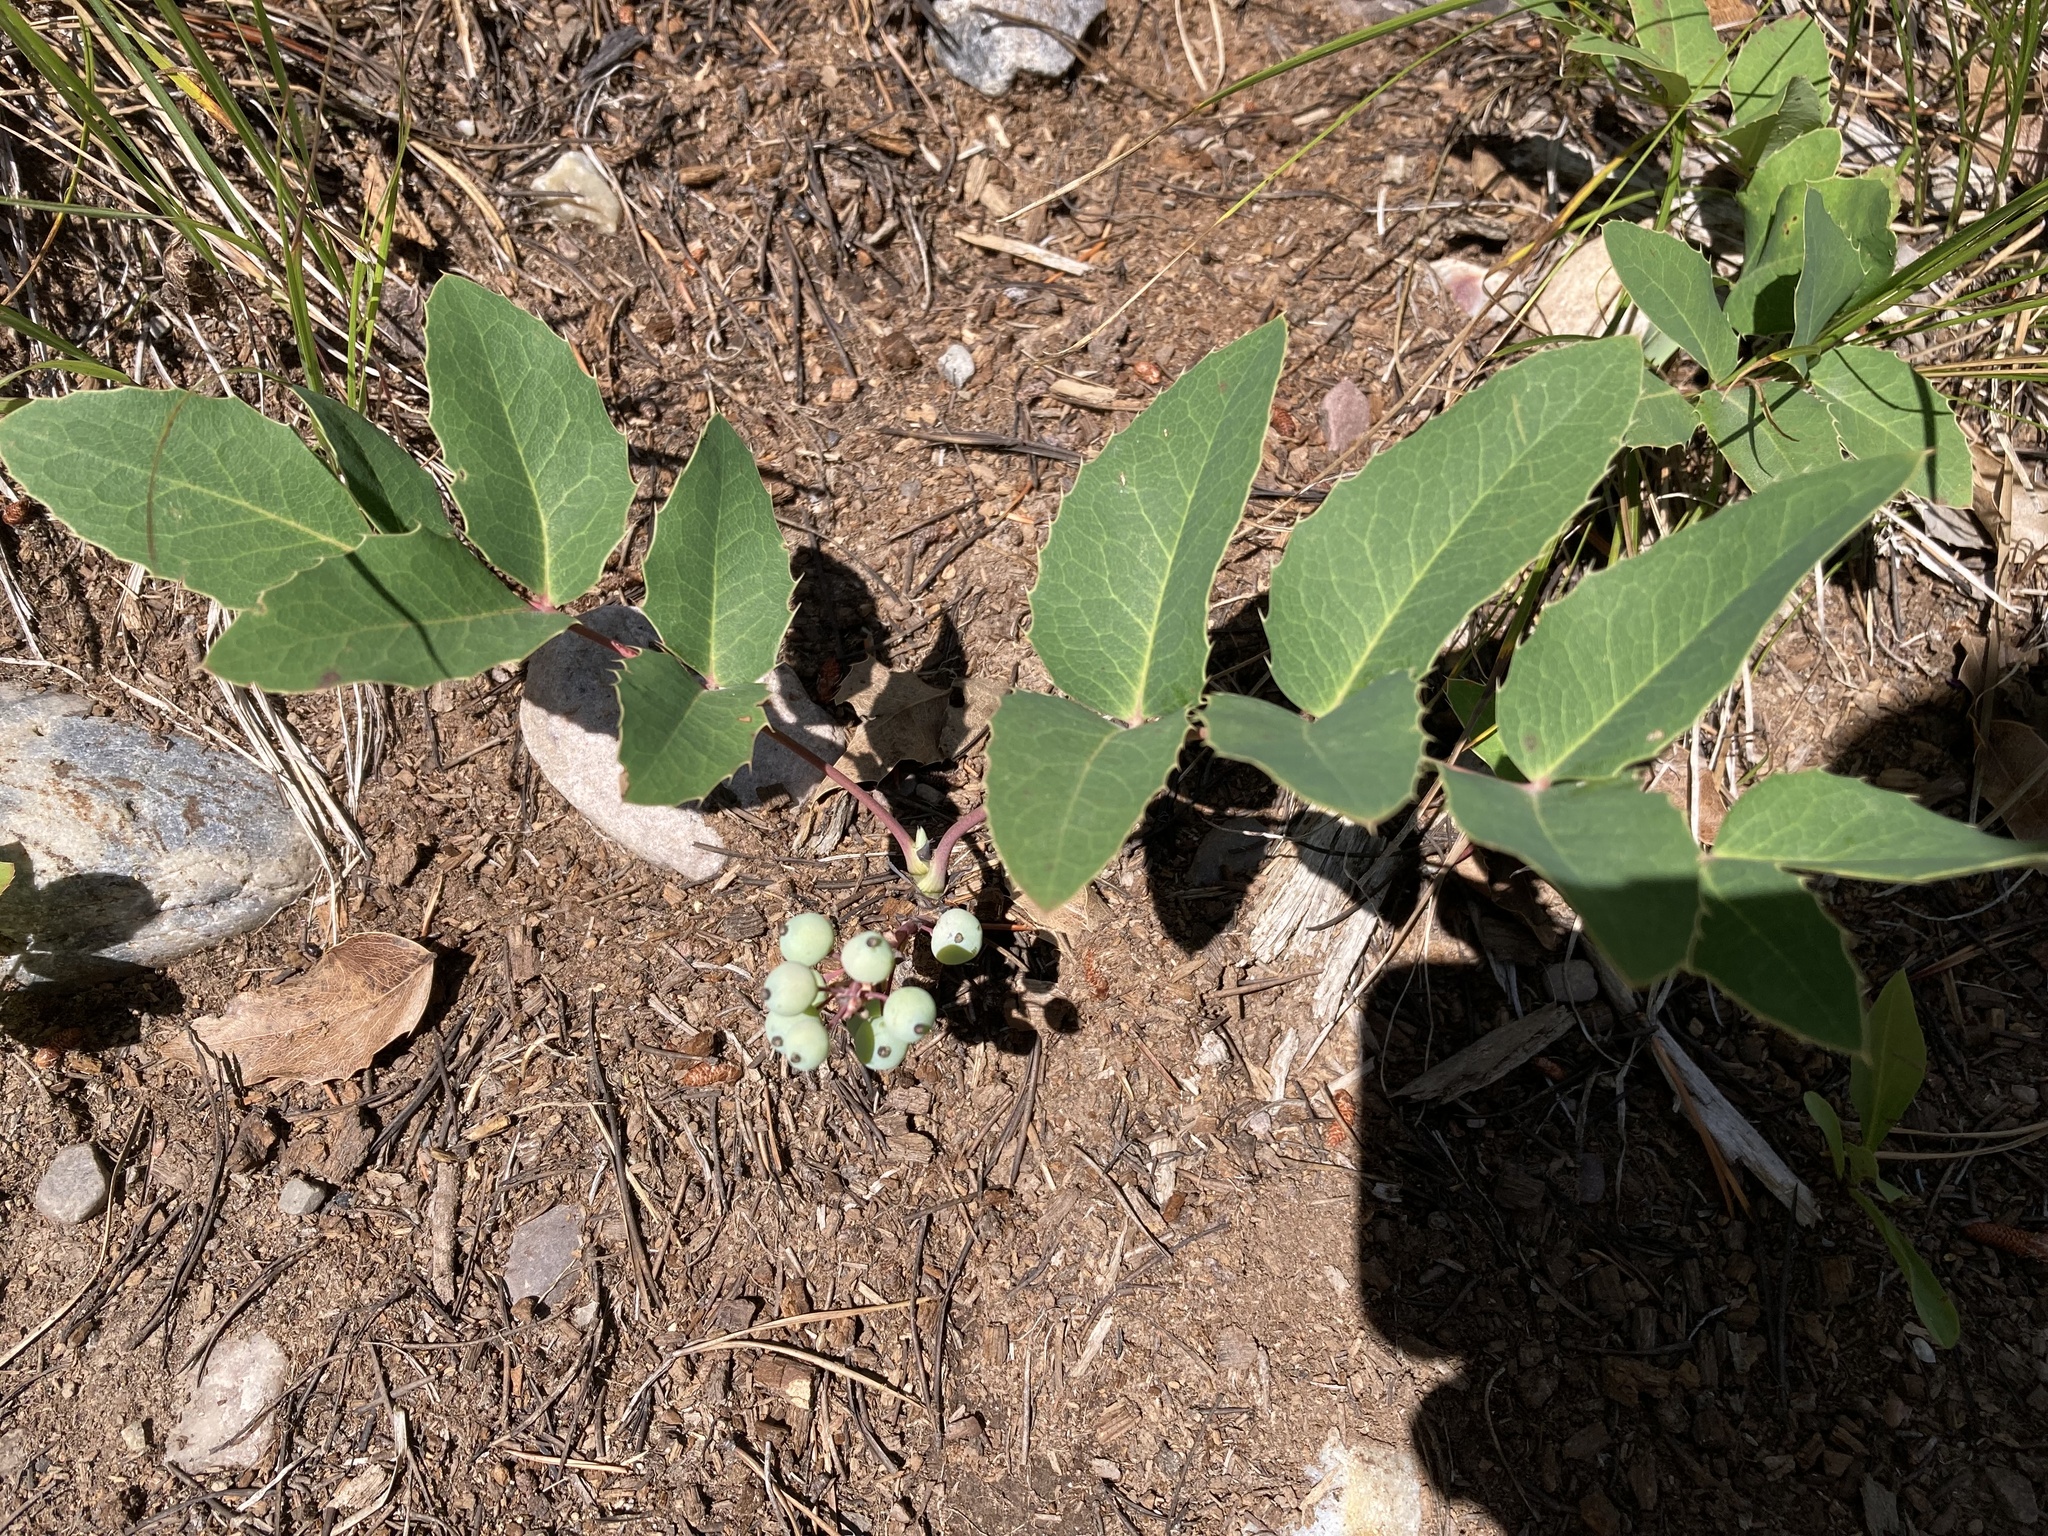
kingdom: Plantae
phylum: Tracheophyta
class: Magnoliopsida
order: Ranunculales
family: Berberidaceae
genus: Mahonia
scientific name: Mahonia repens
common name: Creeping oregon-grape
